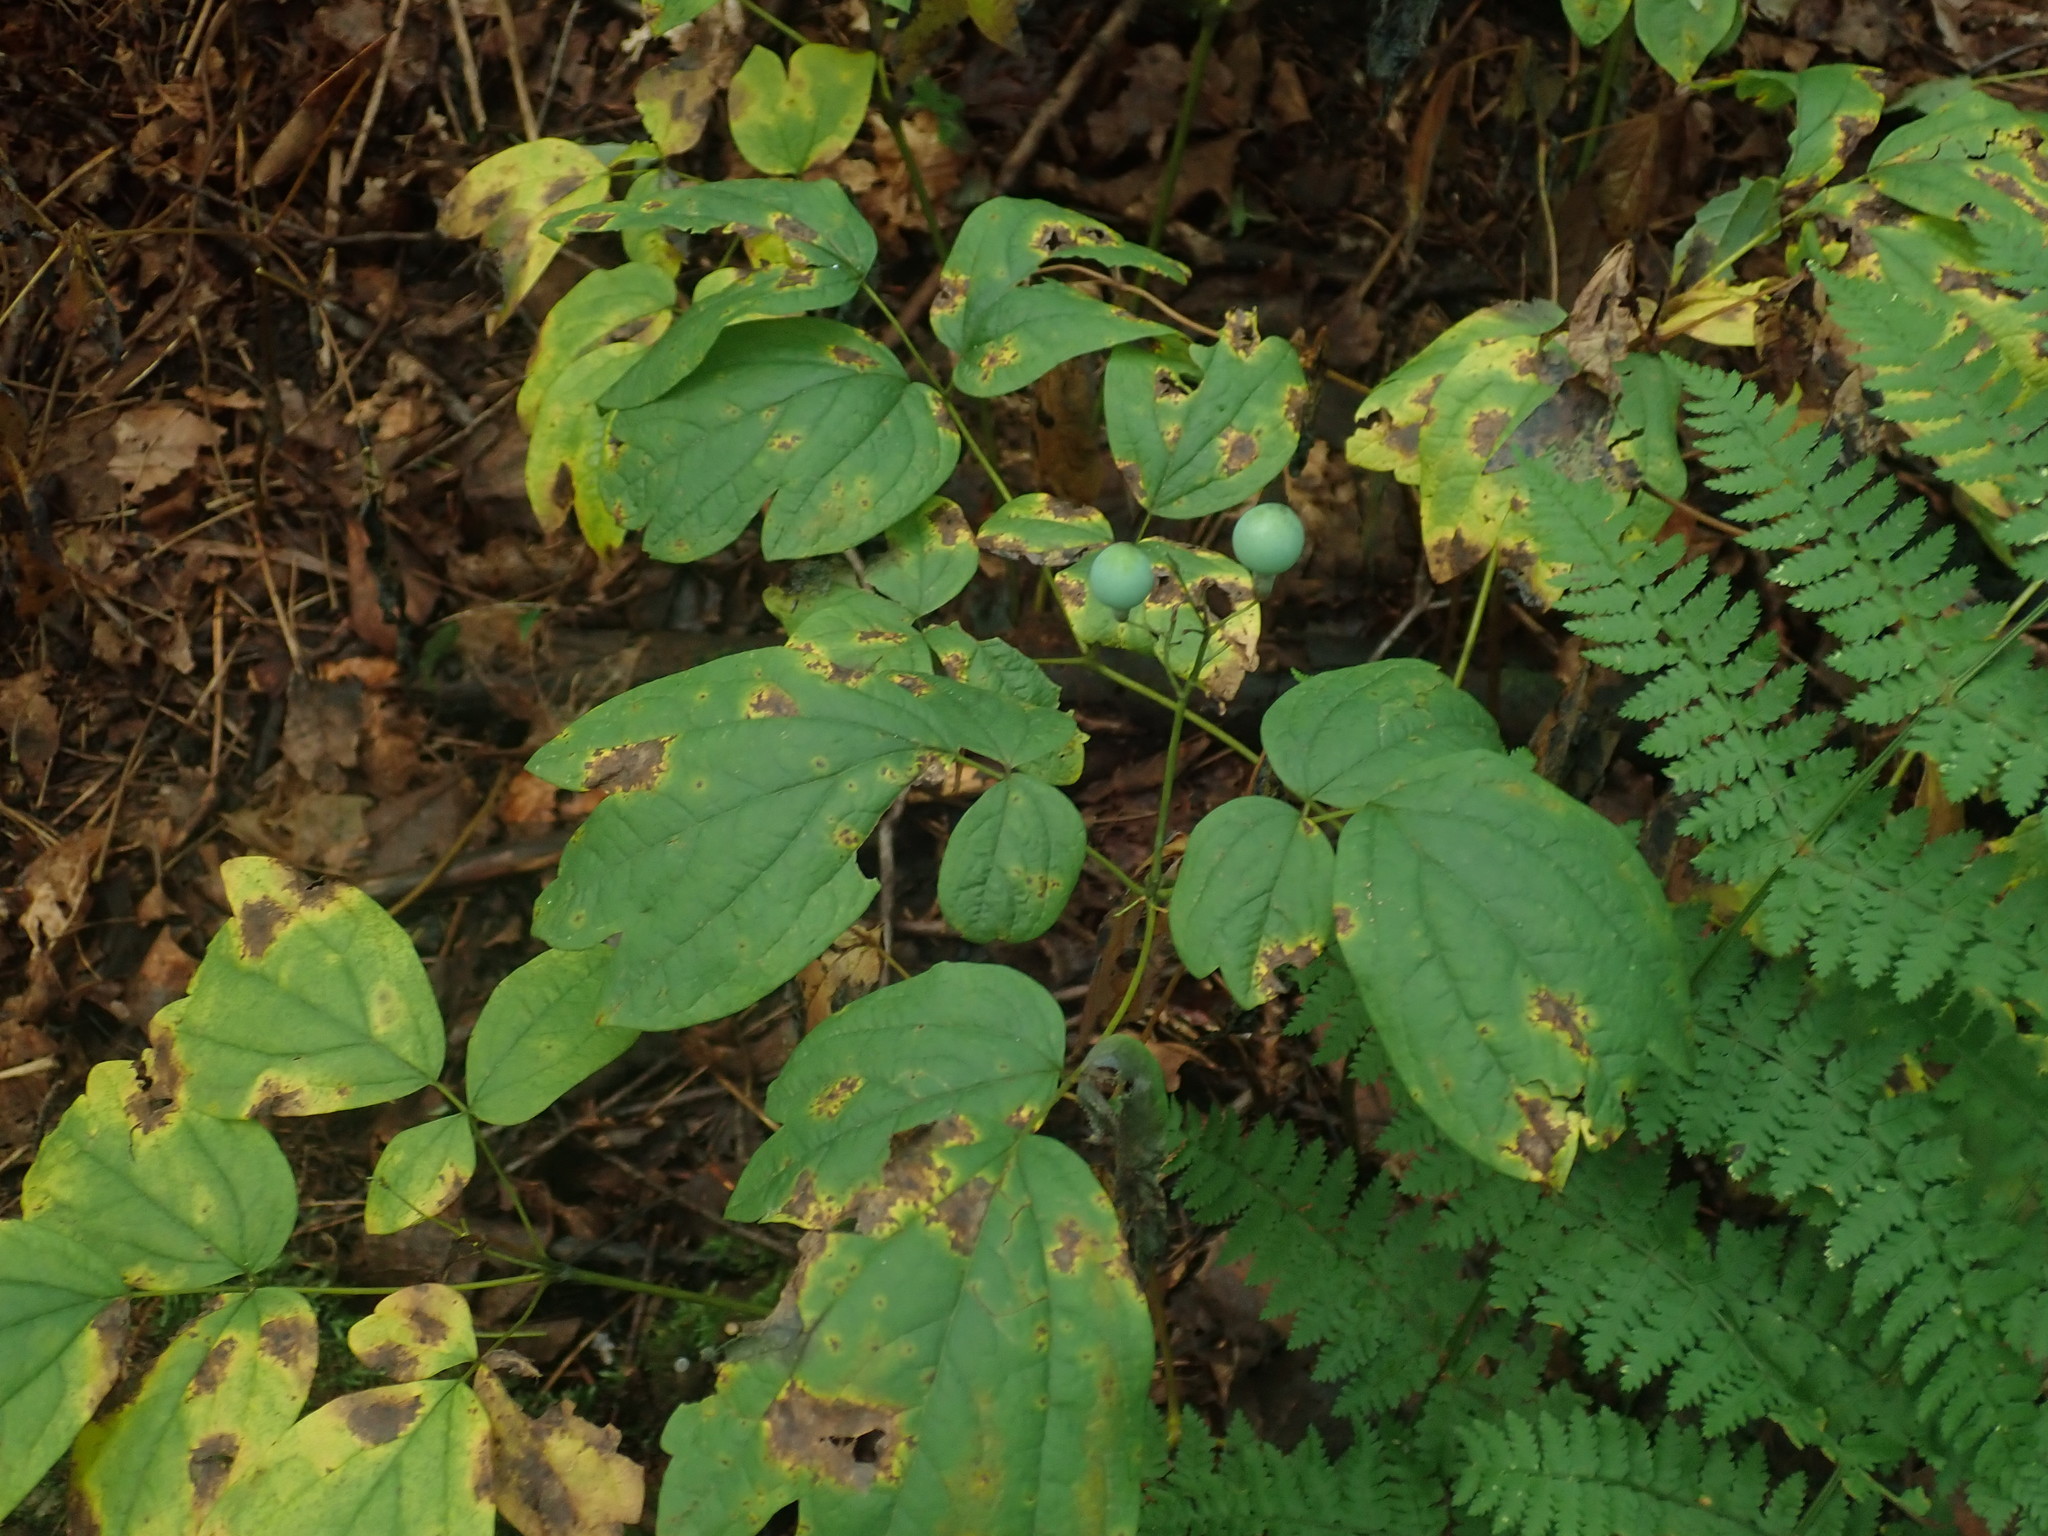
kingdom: Plantae
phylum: Tracheophyta
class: Magnoliopsida
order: Ranunculales
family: Berberidaceae
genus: Caulophyllum
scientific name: Caulophyllum
